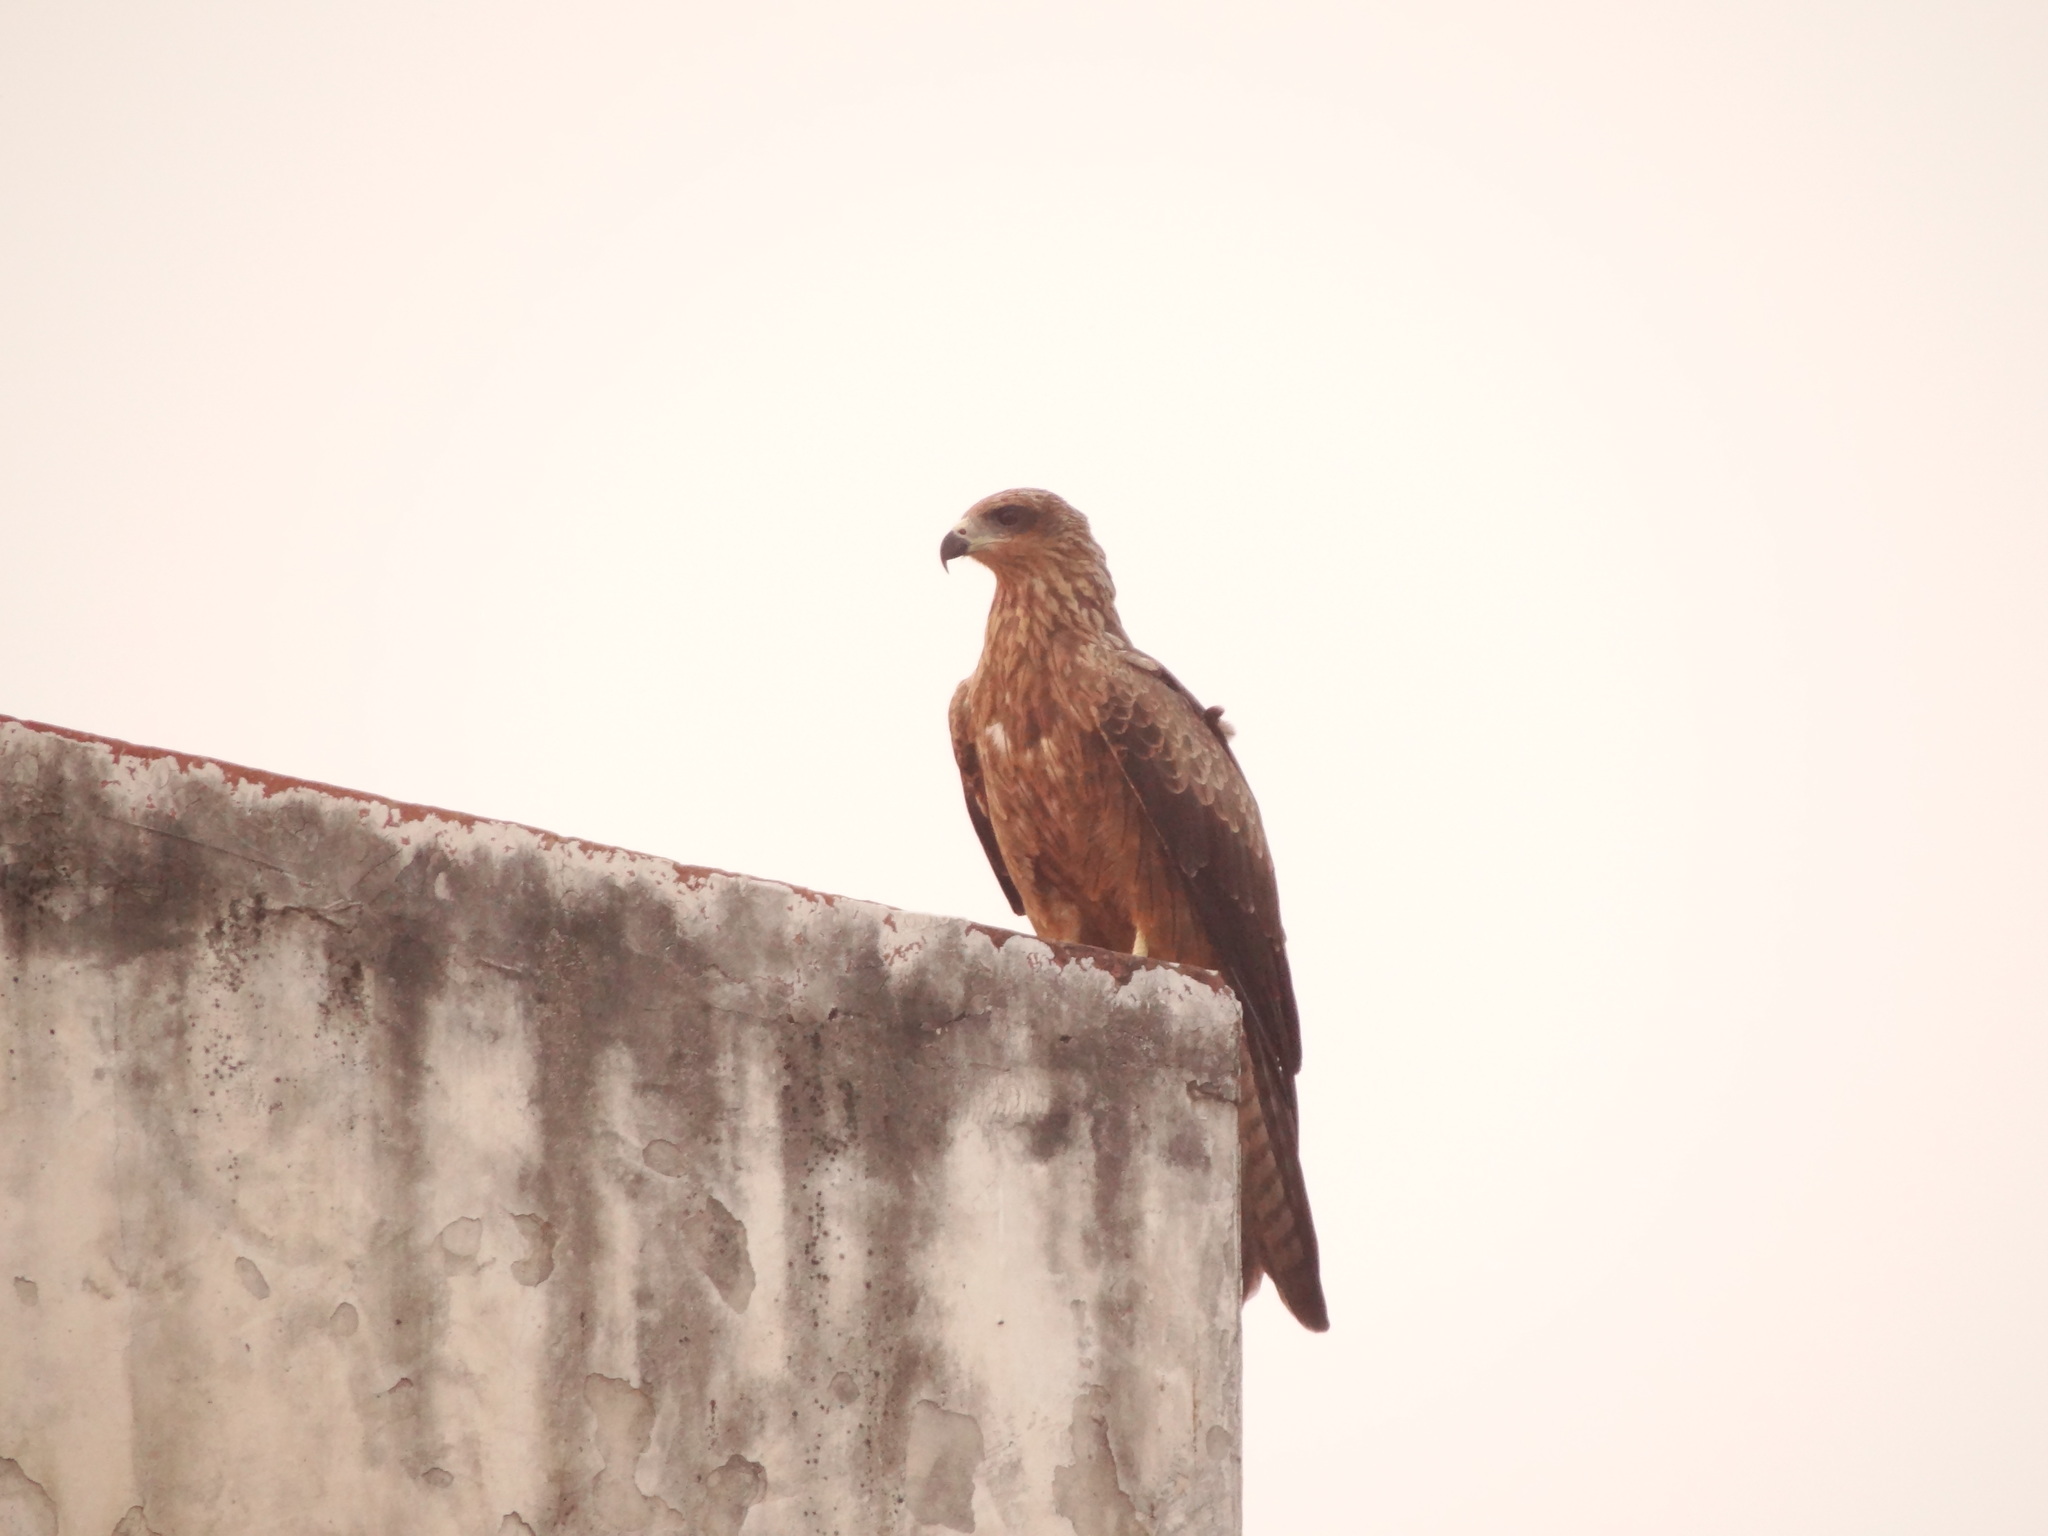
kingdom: Animalia
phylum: Chordata
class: Aves
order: Accipitriformes
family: Accipitridae
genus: Milvus
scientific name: Milvus migrans
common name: Black kite
